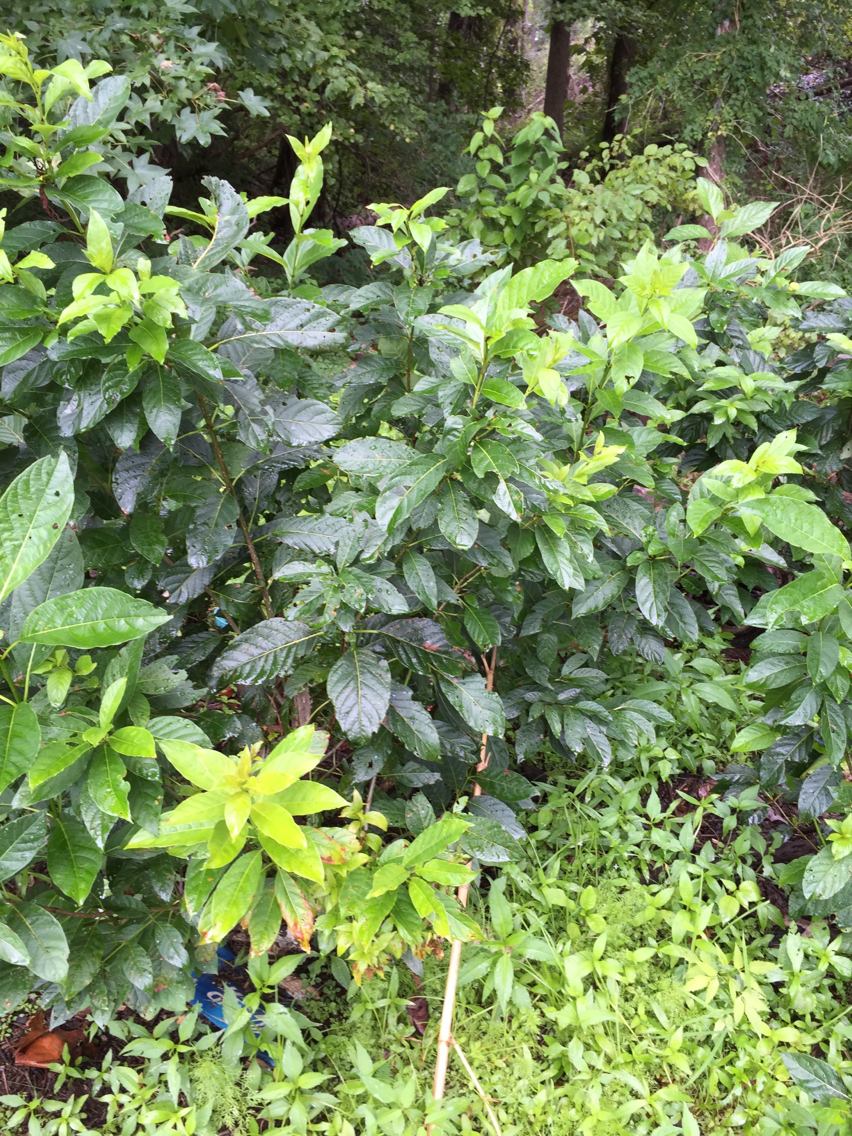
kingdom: Plantae
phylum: Tracheophyta
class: Magnoliopsida
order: Gentianales
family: Rubiaceae
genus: Cephalanthus
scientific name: Cephalanthus occidentalis
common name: Button-willow
